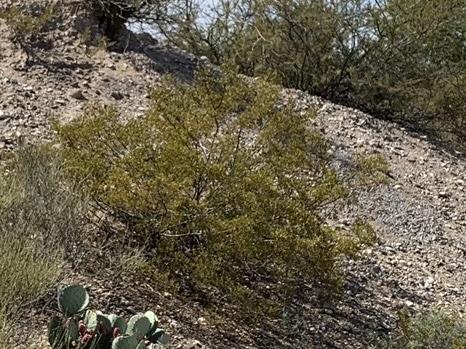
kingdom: Plantae
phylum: Tracheophyta
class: Magnoliopsida
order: Zygophyllales
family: Zygophyllaceae
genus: Larrea
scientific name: Larrea tridentata
